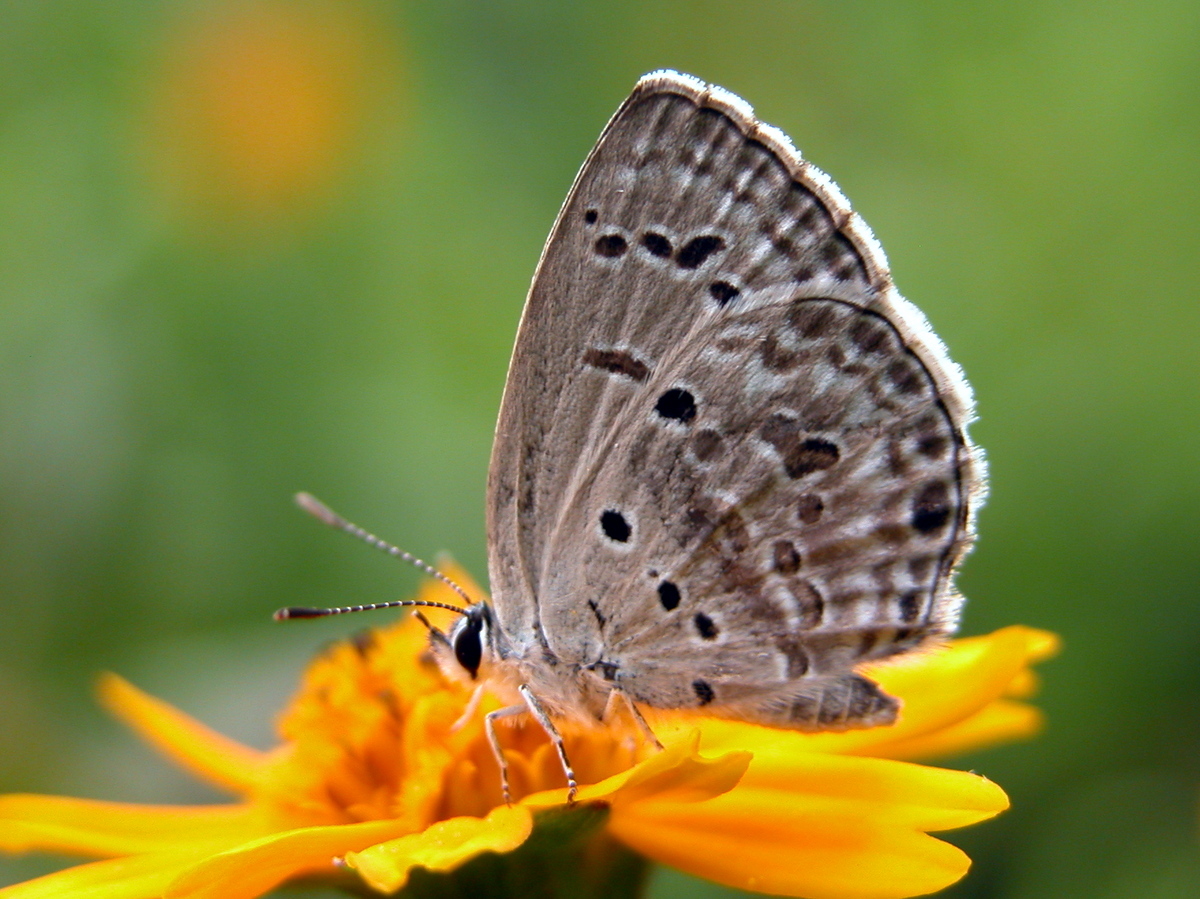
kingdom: Animalia
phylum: Arthropoda
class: Insecta
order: Lepidoptera
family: Lycaenidae
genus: Chilades
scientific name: Chilades laius
